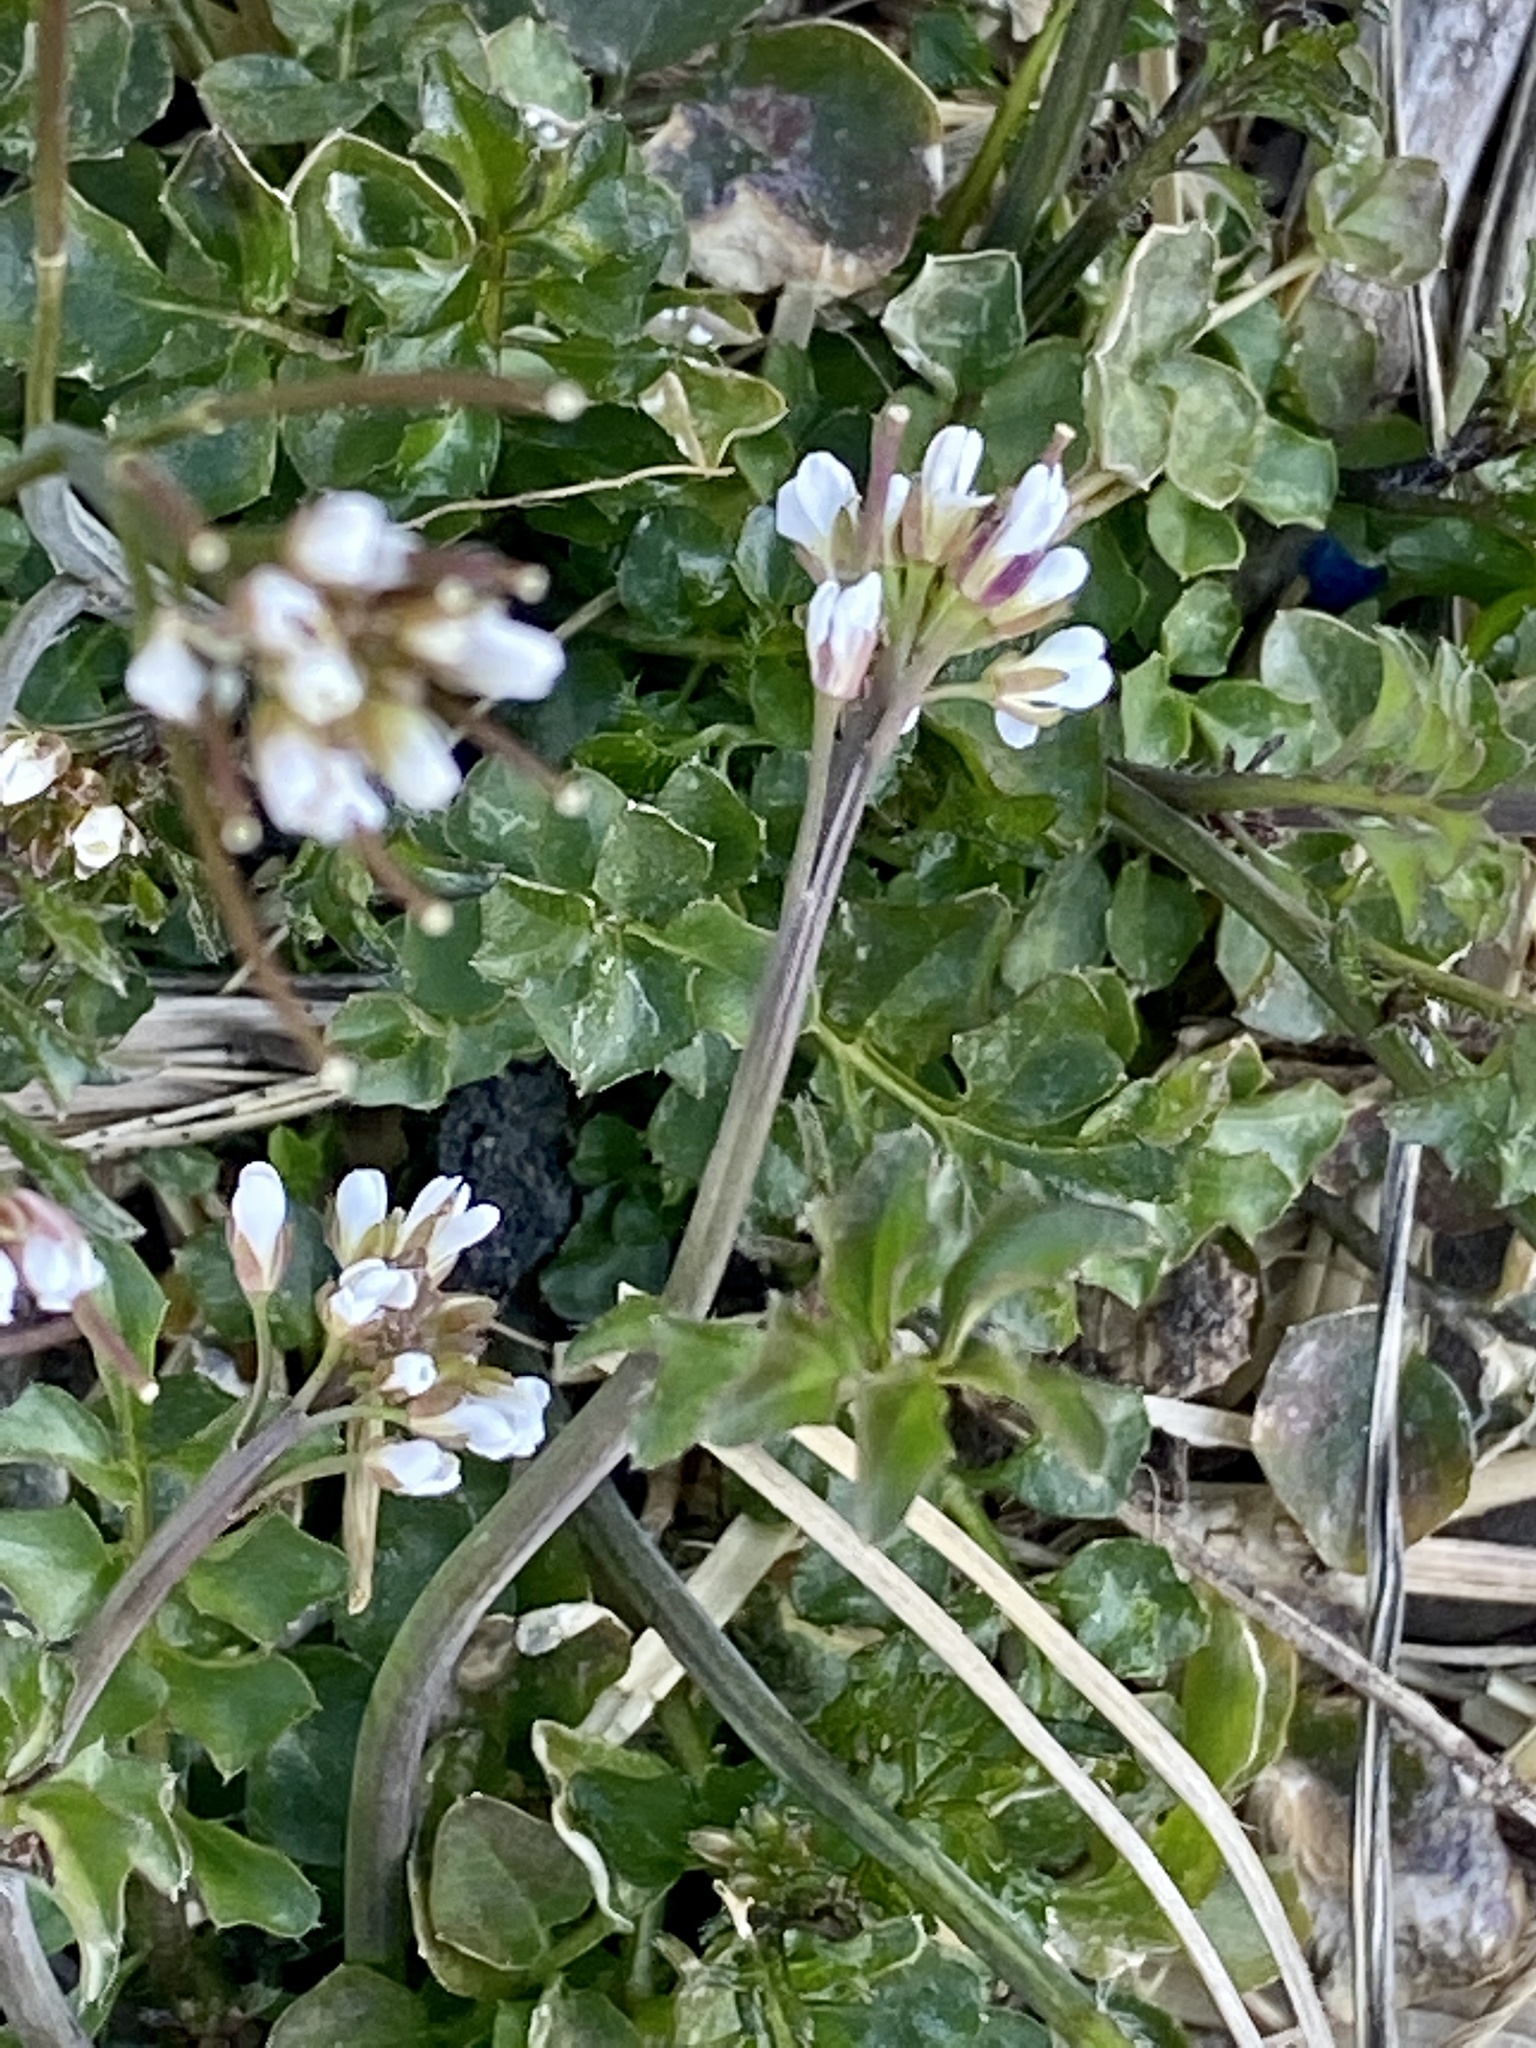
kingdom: Plantae
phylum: Tracheophyta
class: Magnoliopsida
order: Brassicales
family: Brassicaceae
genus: Cardamine
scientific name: Cardamine hirsuta
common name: Hairy bittercress
